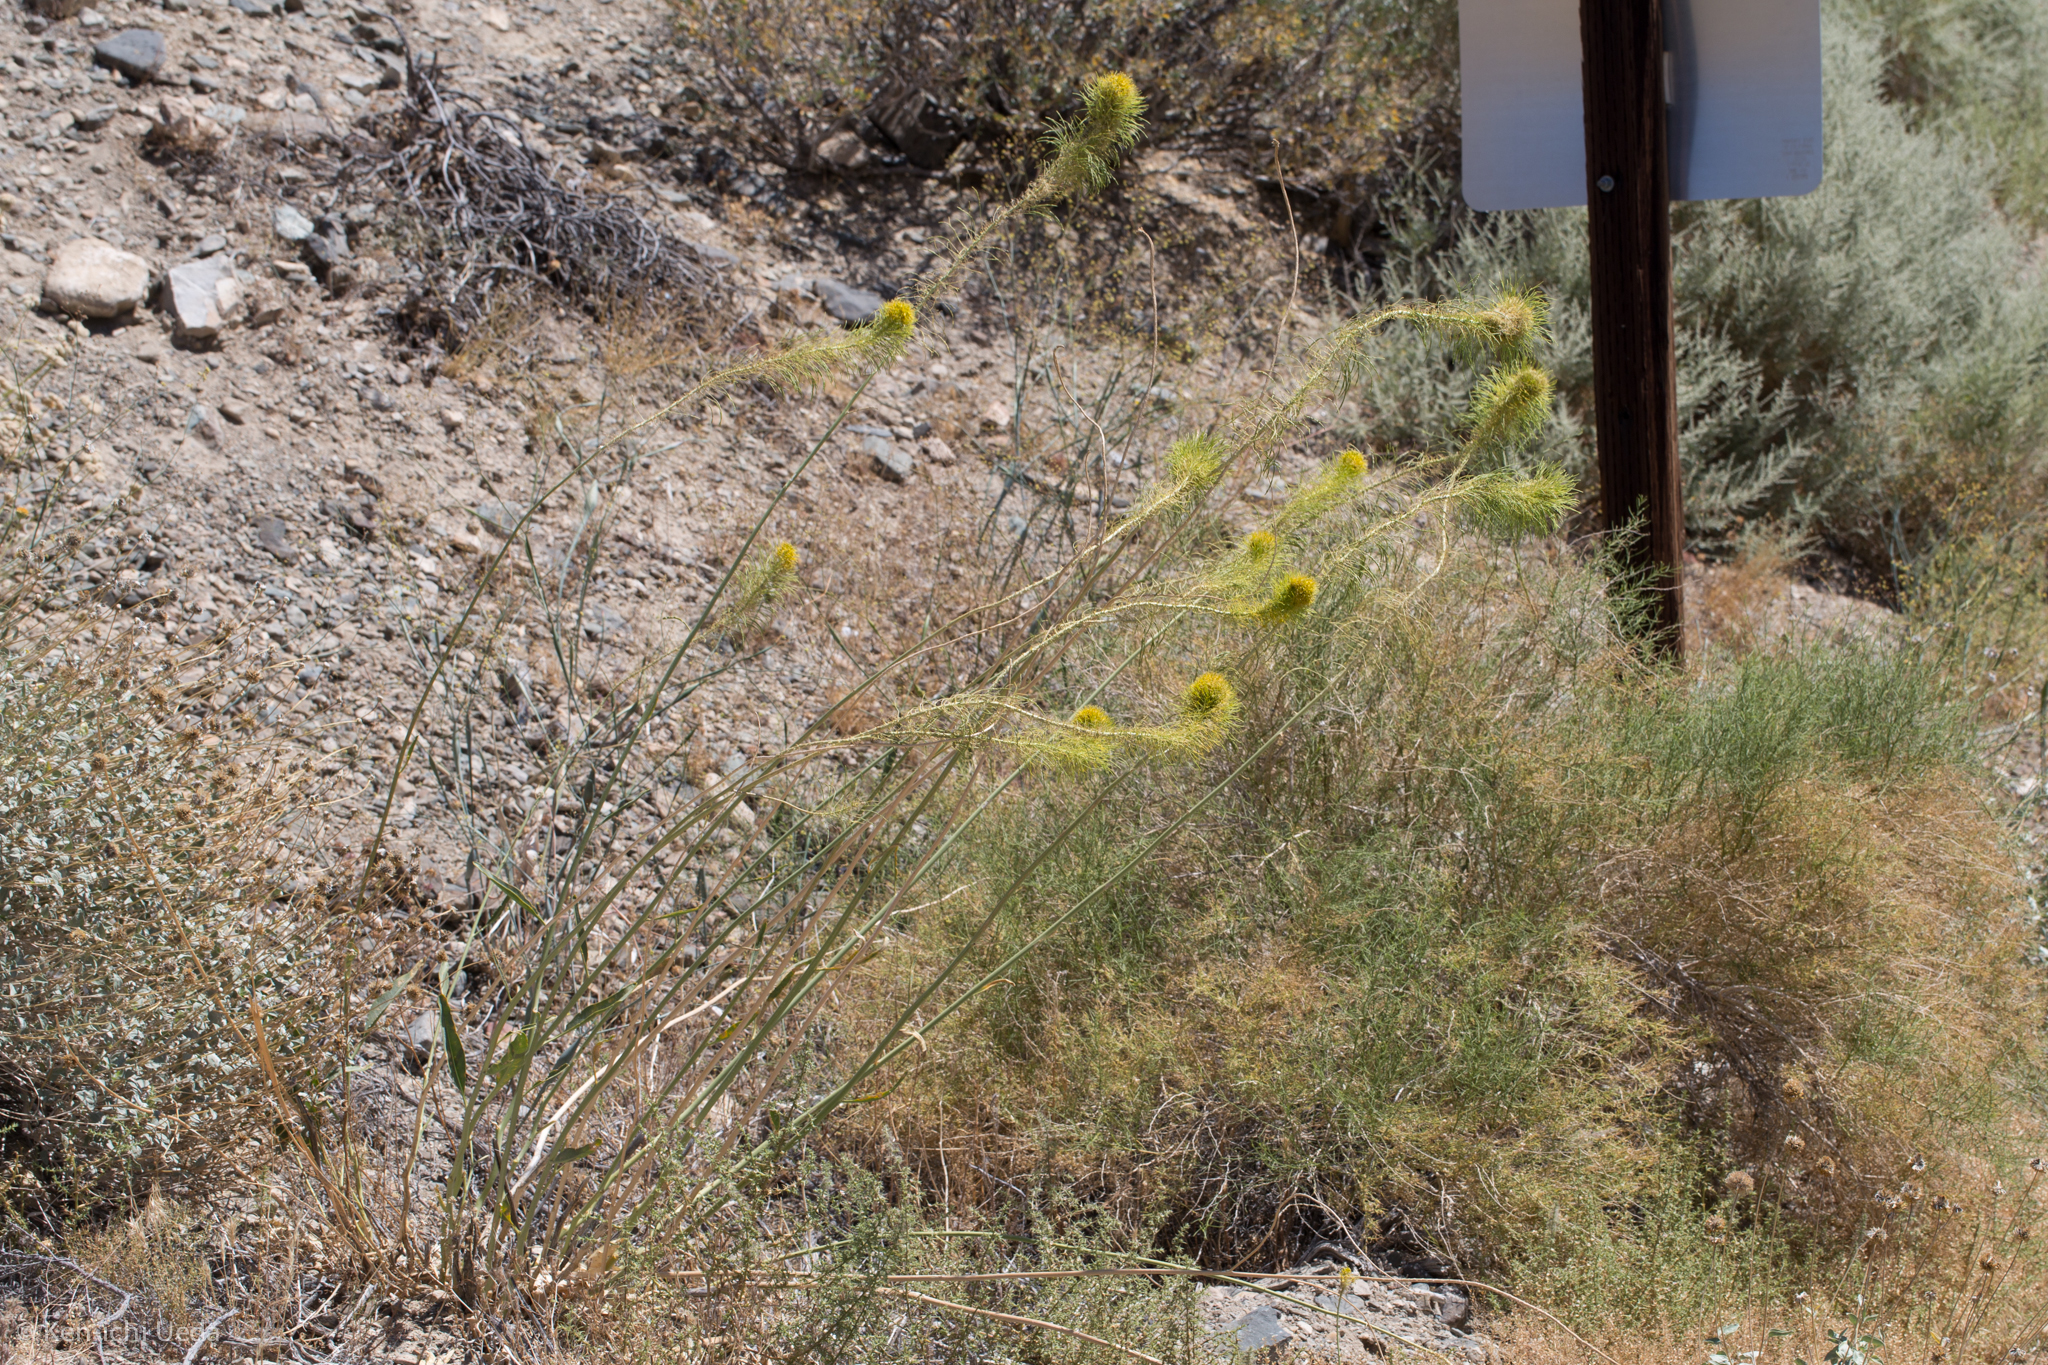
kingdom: Plantae
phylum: Tracheophyta
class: Magnoliopsida
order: Brassicales
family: Brassicaceae
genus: Stanleya
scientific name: Stanleya elata
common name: Panamint prince's plume
